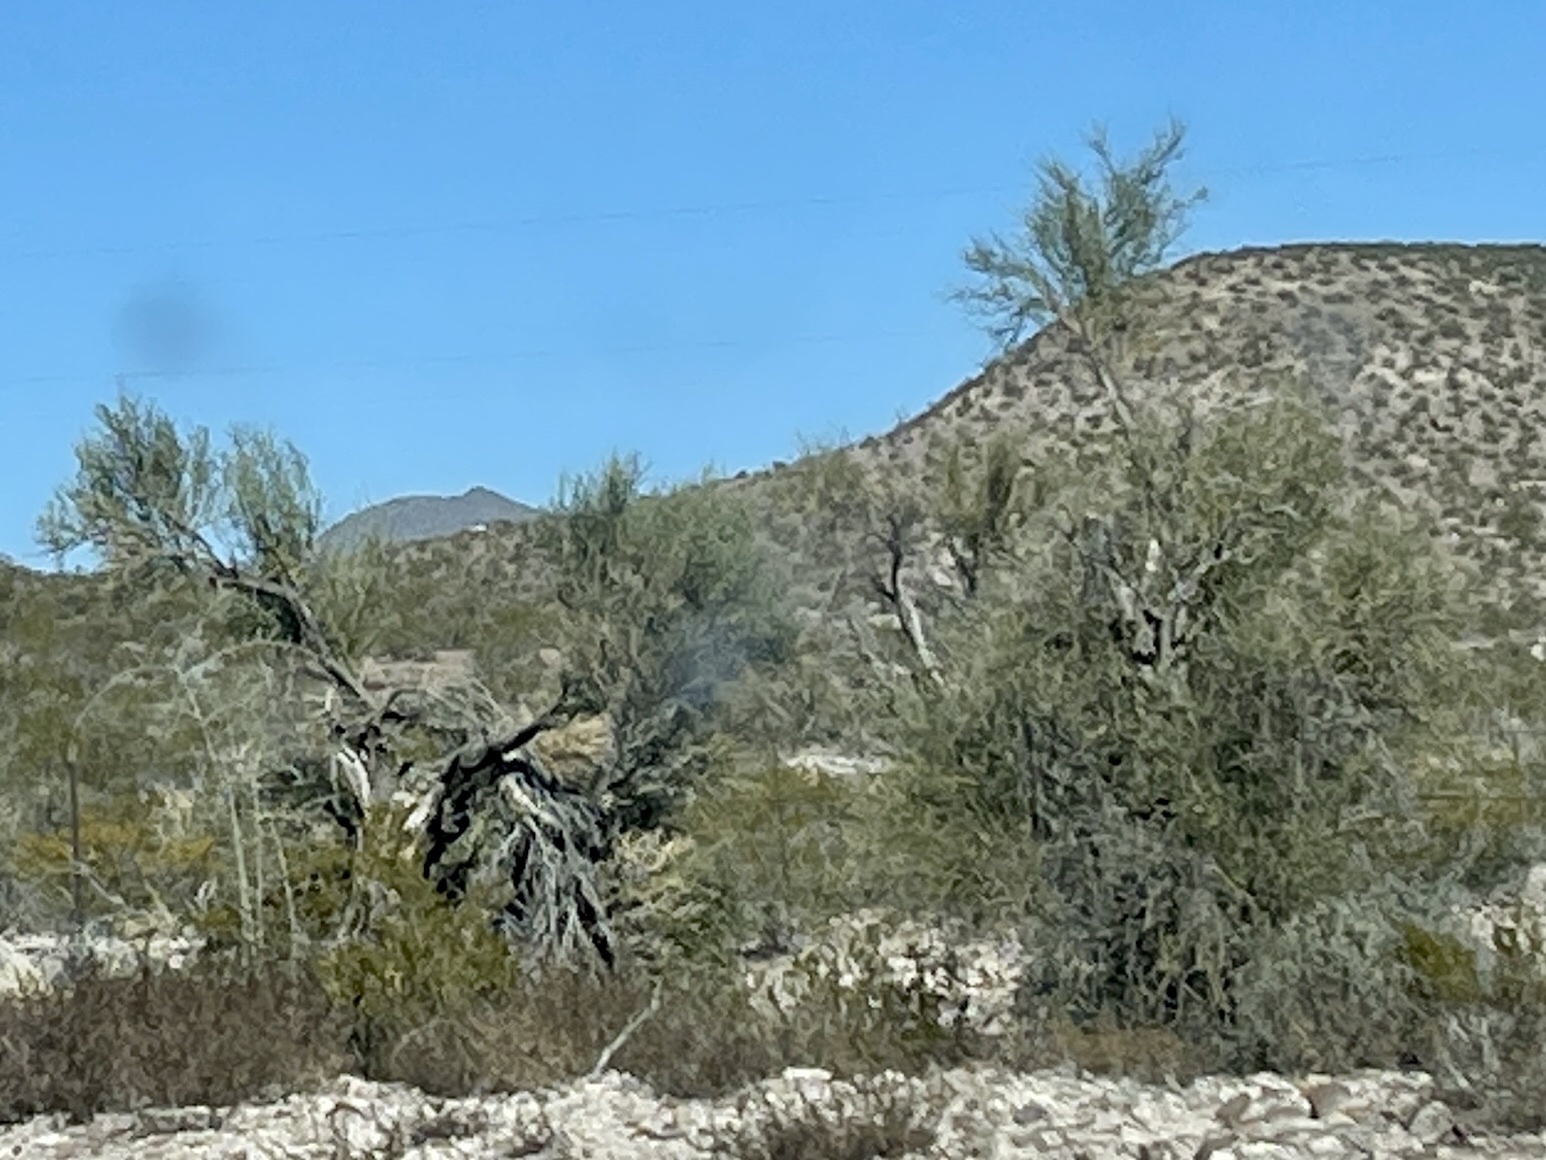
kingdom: Plantae
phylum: Tracheophyta
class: Magnoliopsida
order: Celastrales
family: Celastraceae
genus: Canotia
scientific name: Canotia holacantha
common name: Crucifixion thorns
